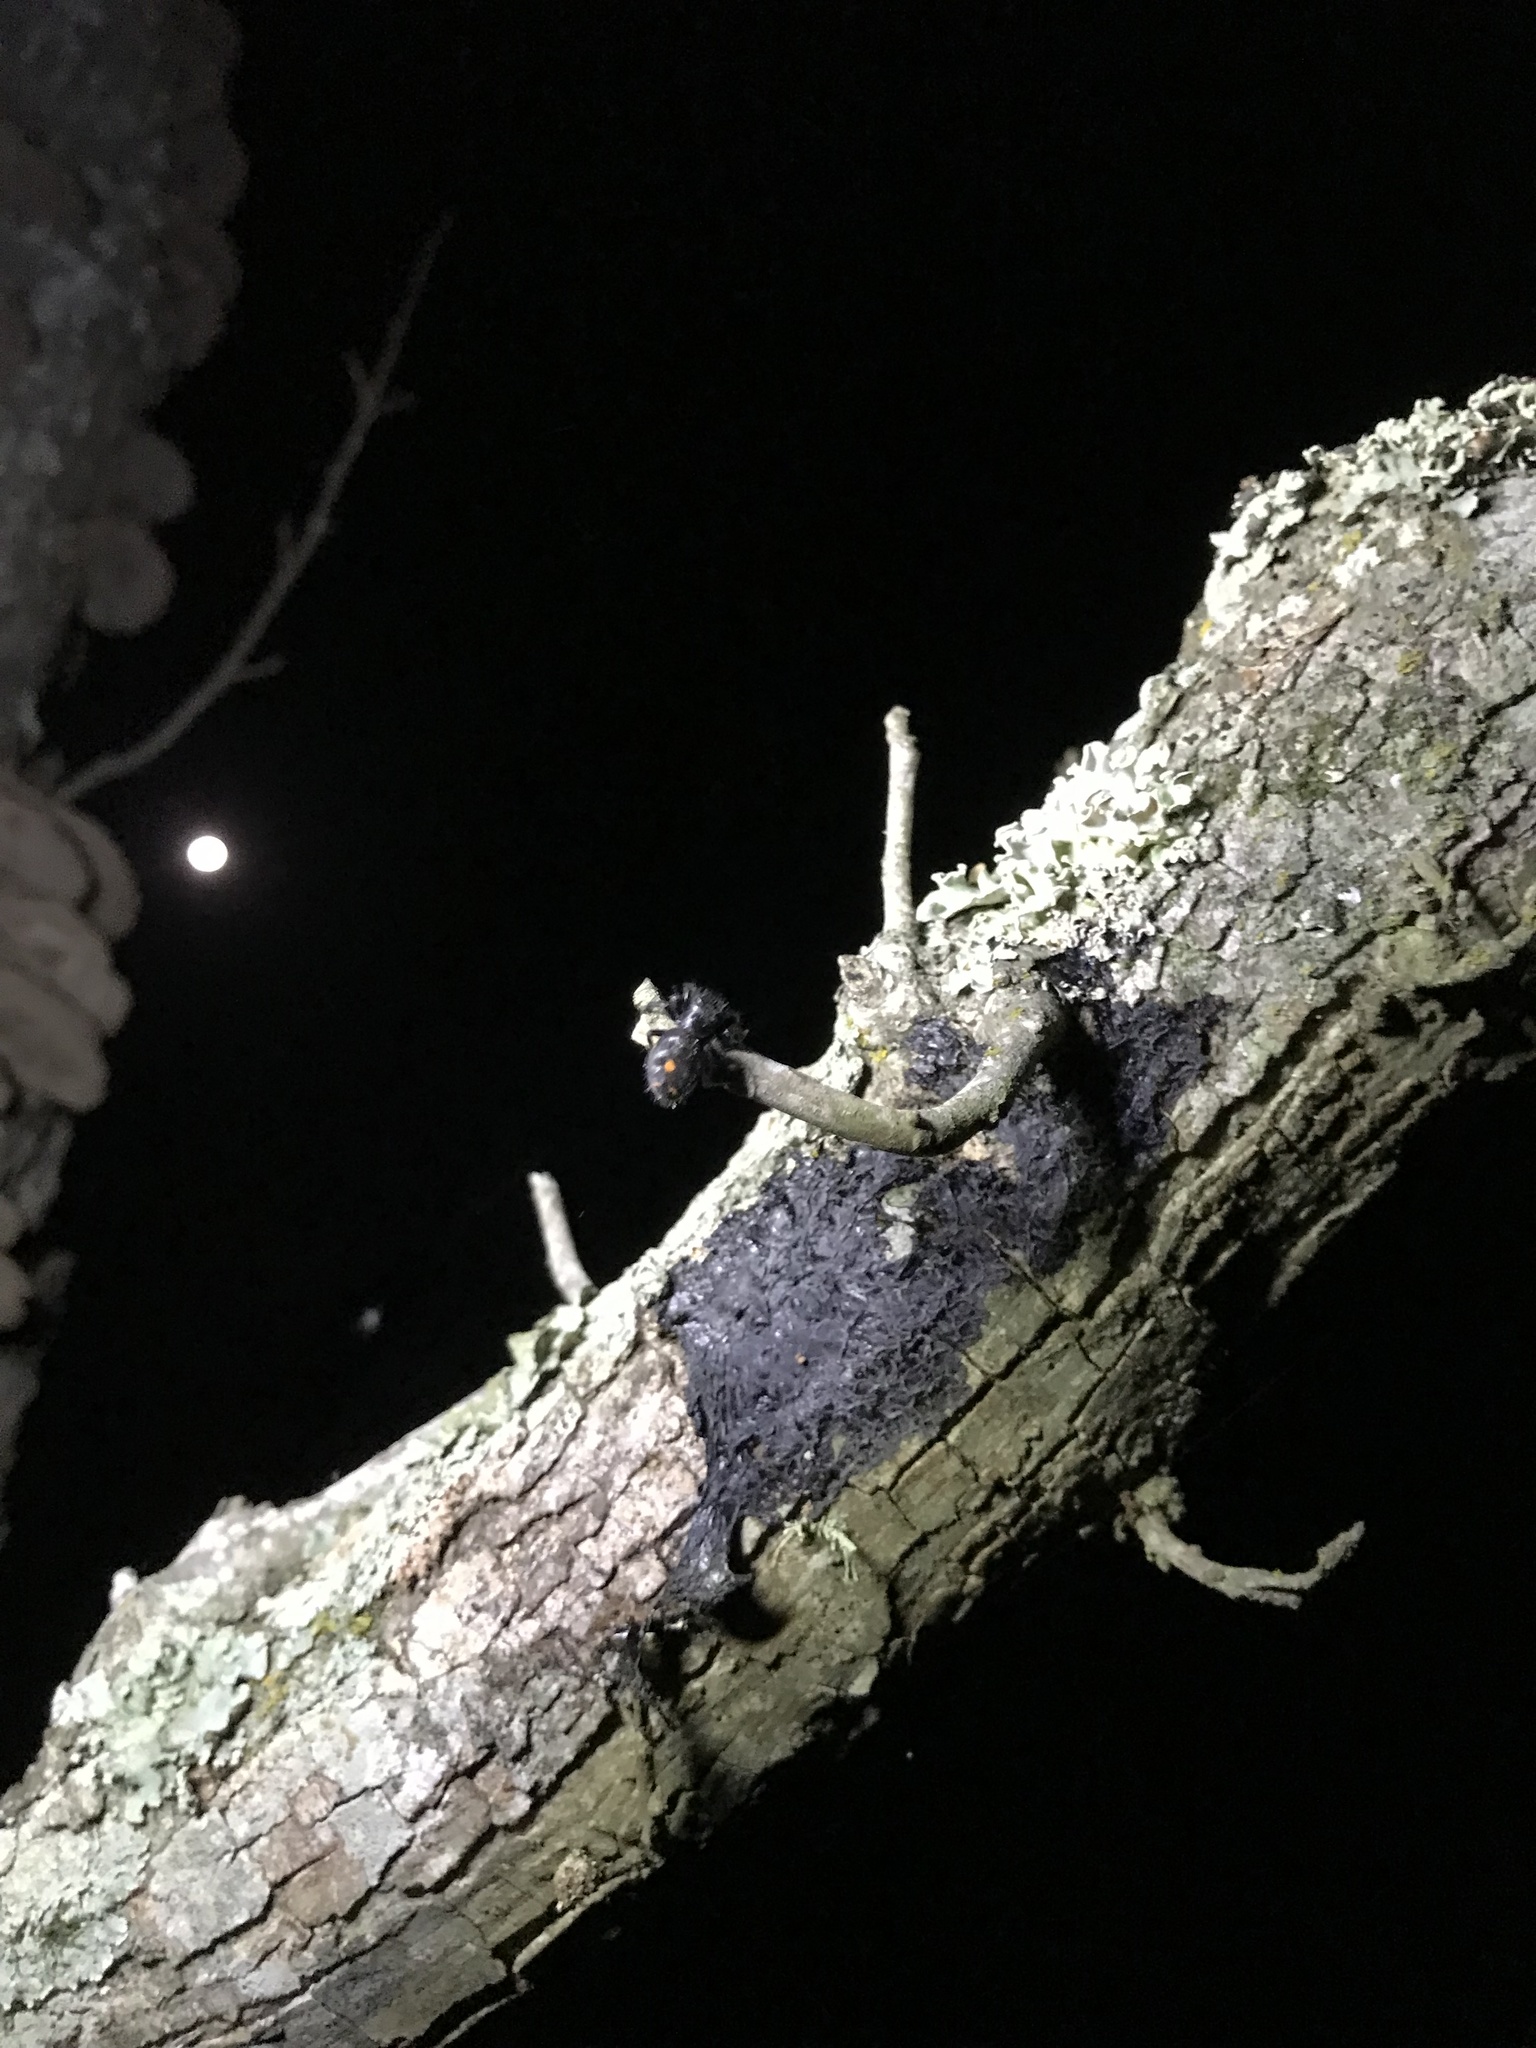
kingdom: Animalia
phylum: Arthropoda
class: Arachnida
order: Araneae
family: Salticidae
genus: Phidippus
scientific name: Phidippus audax
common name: Bold jumper
